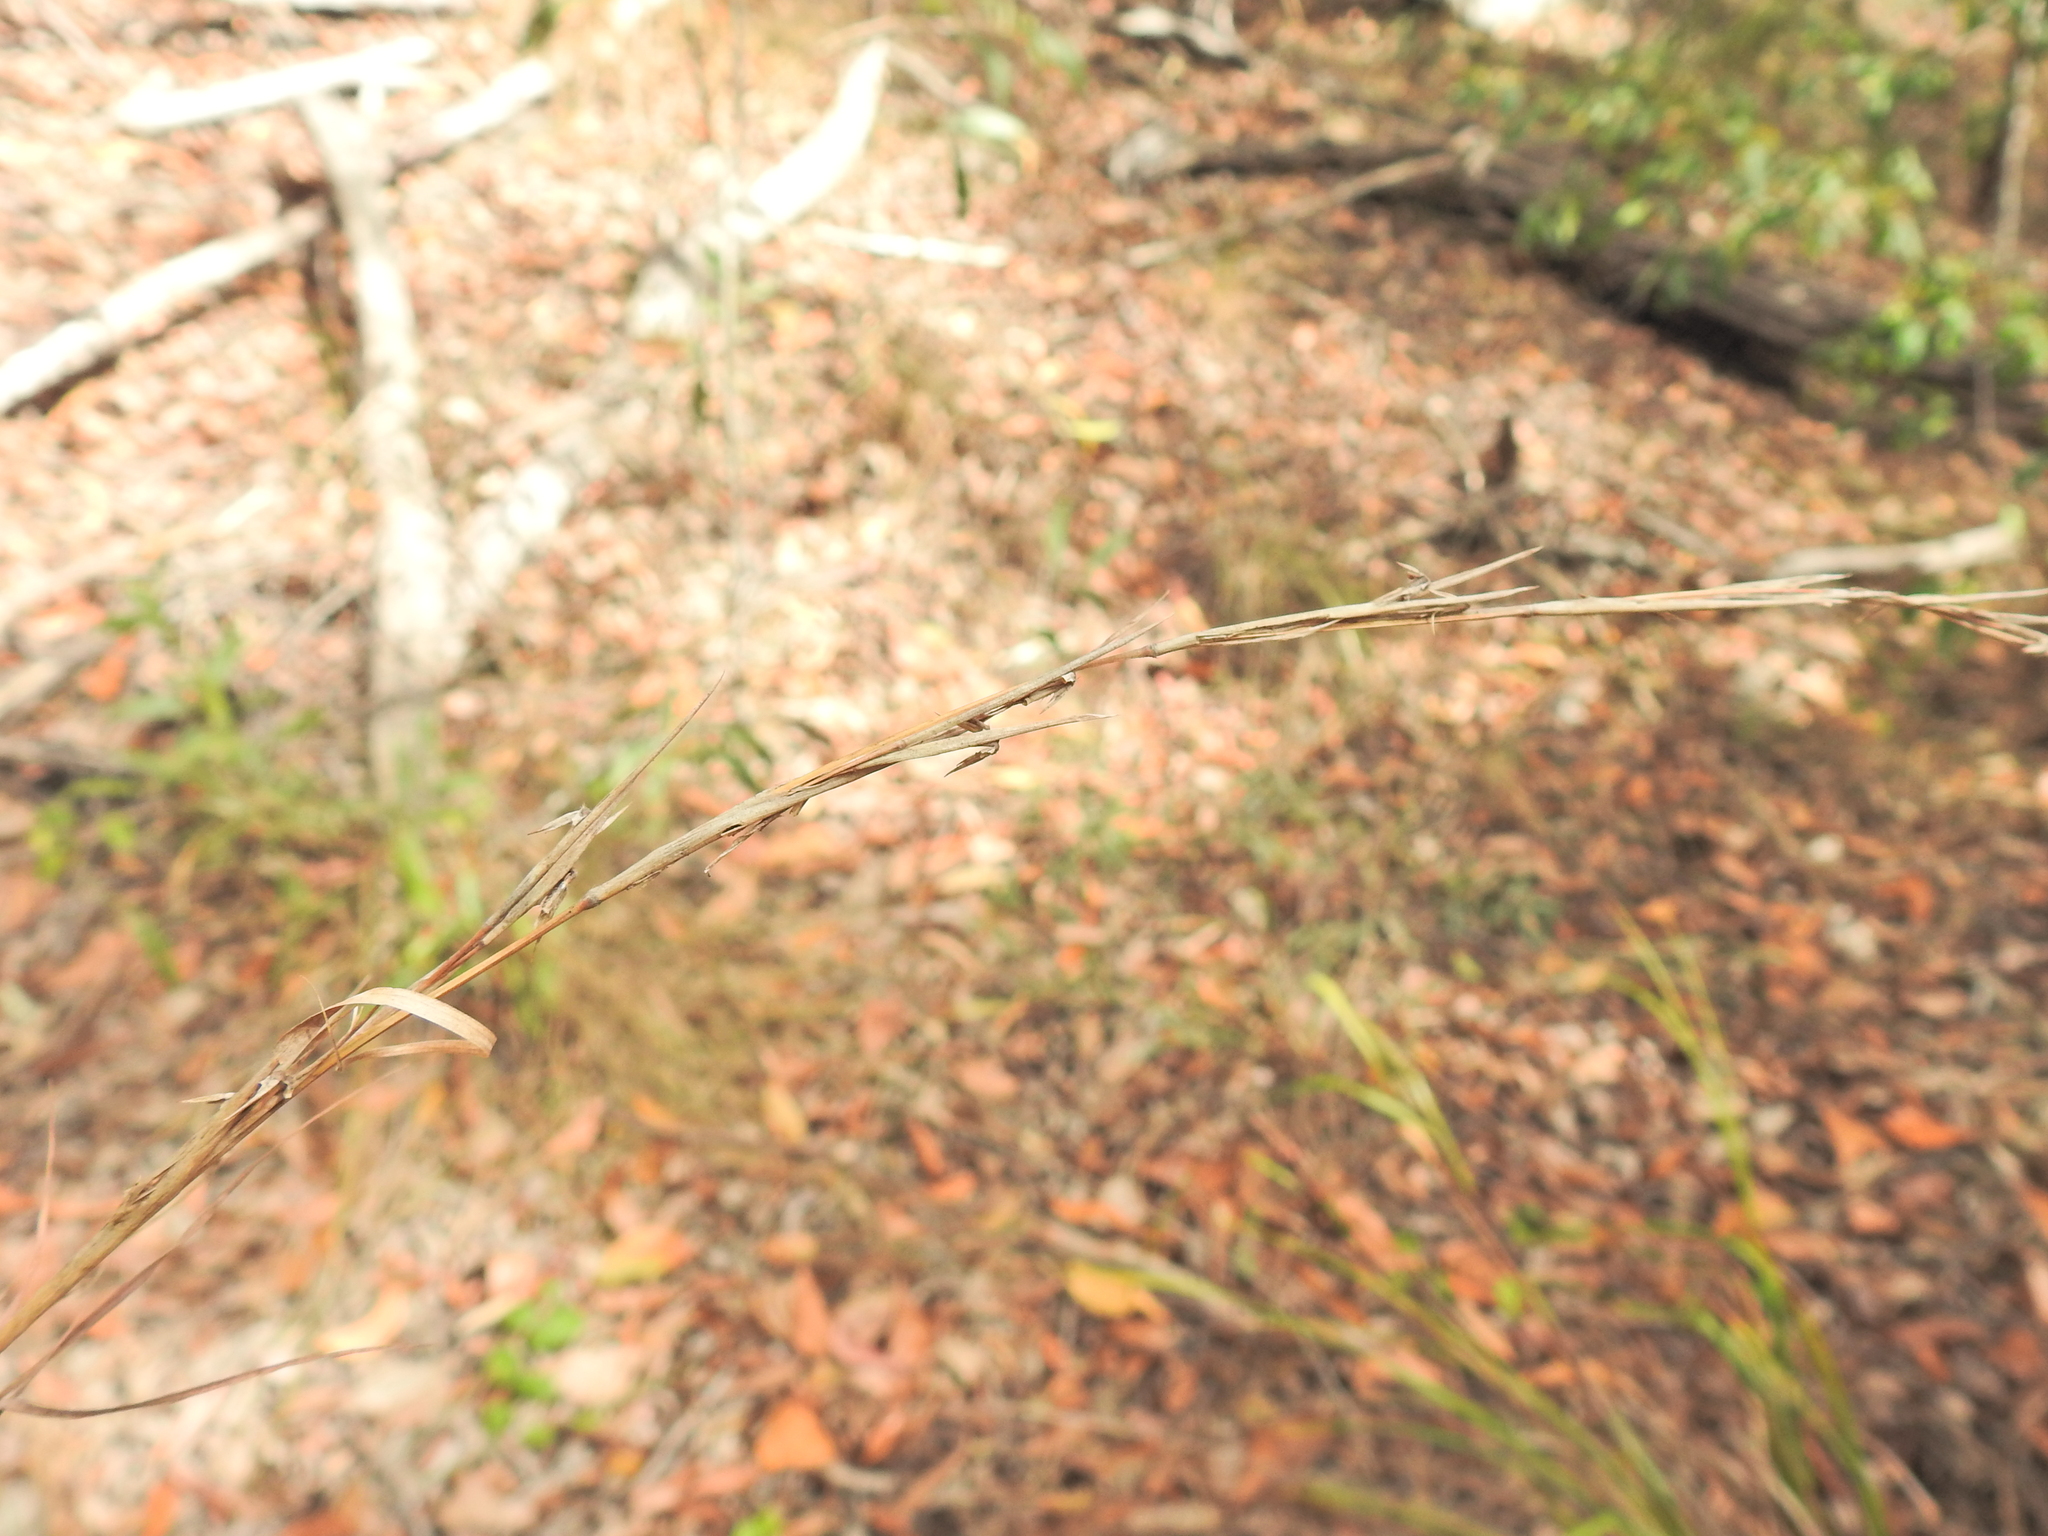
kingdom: Plantae
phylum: Tracheophyta
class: Liliopsida
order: Poales
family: Poaceae
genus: Cymbopogon
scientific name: Cymbopogon refractus
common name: Barbwire grass
